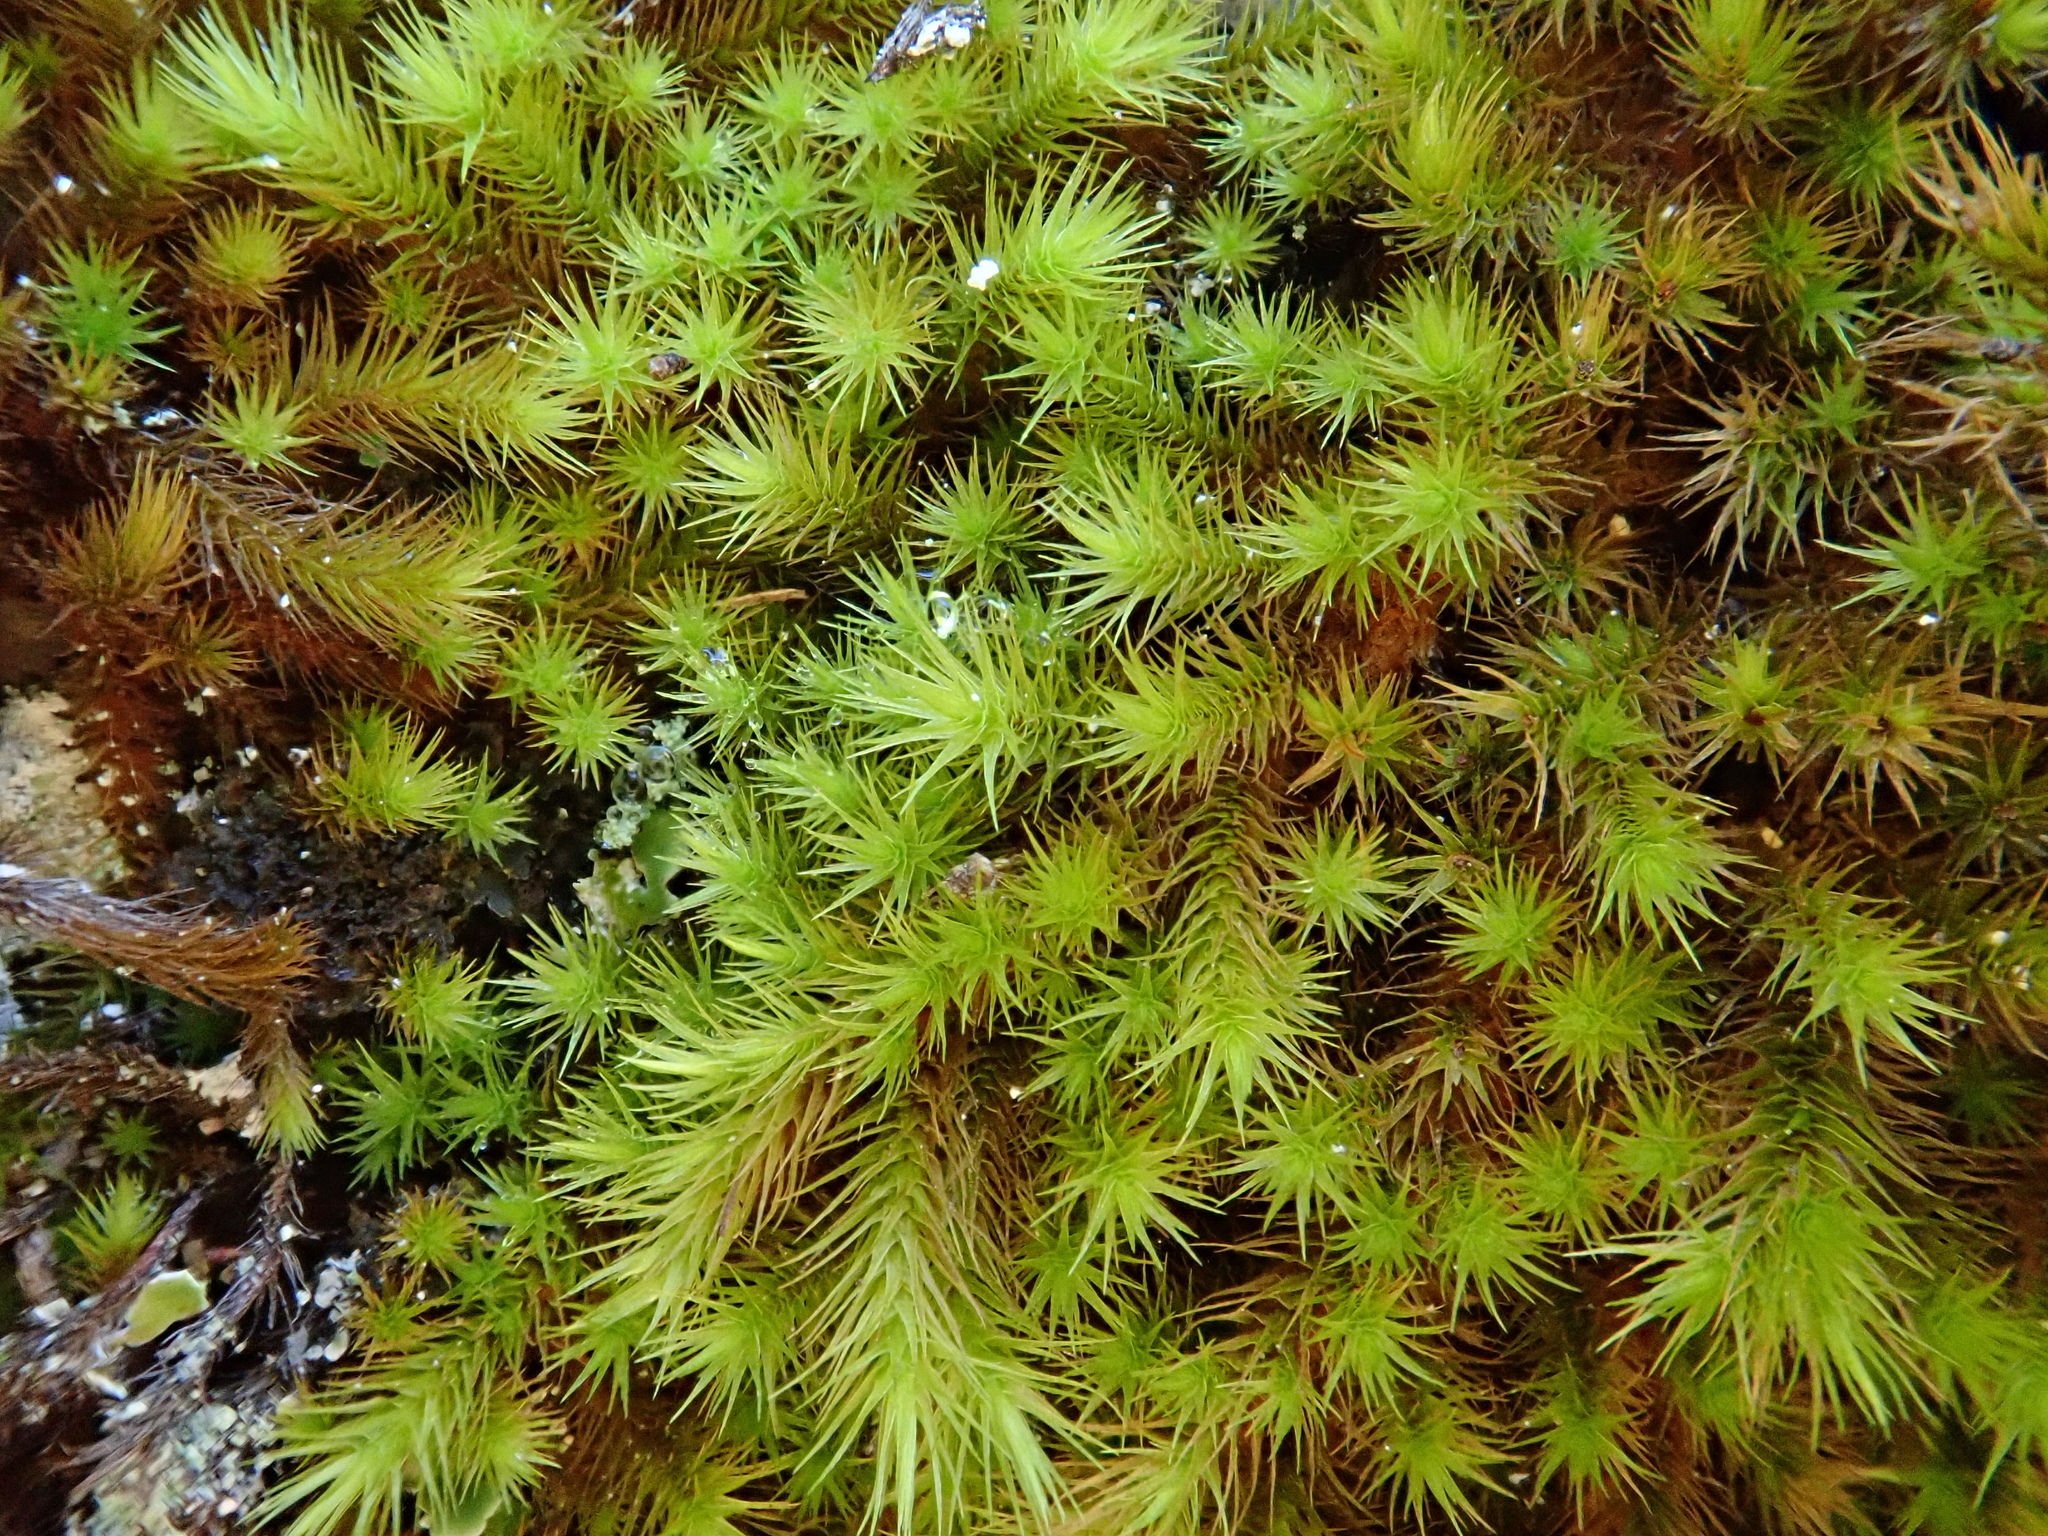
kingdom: Plantae
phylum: Bryophyta
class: Bryopsida
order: Bartramiales
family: Bartramiaceae
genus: Anacolia
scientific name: Anacolia webbii
